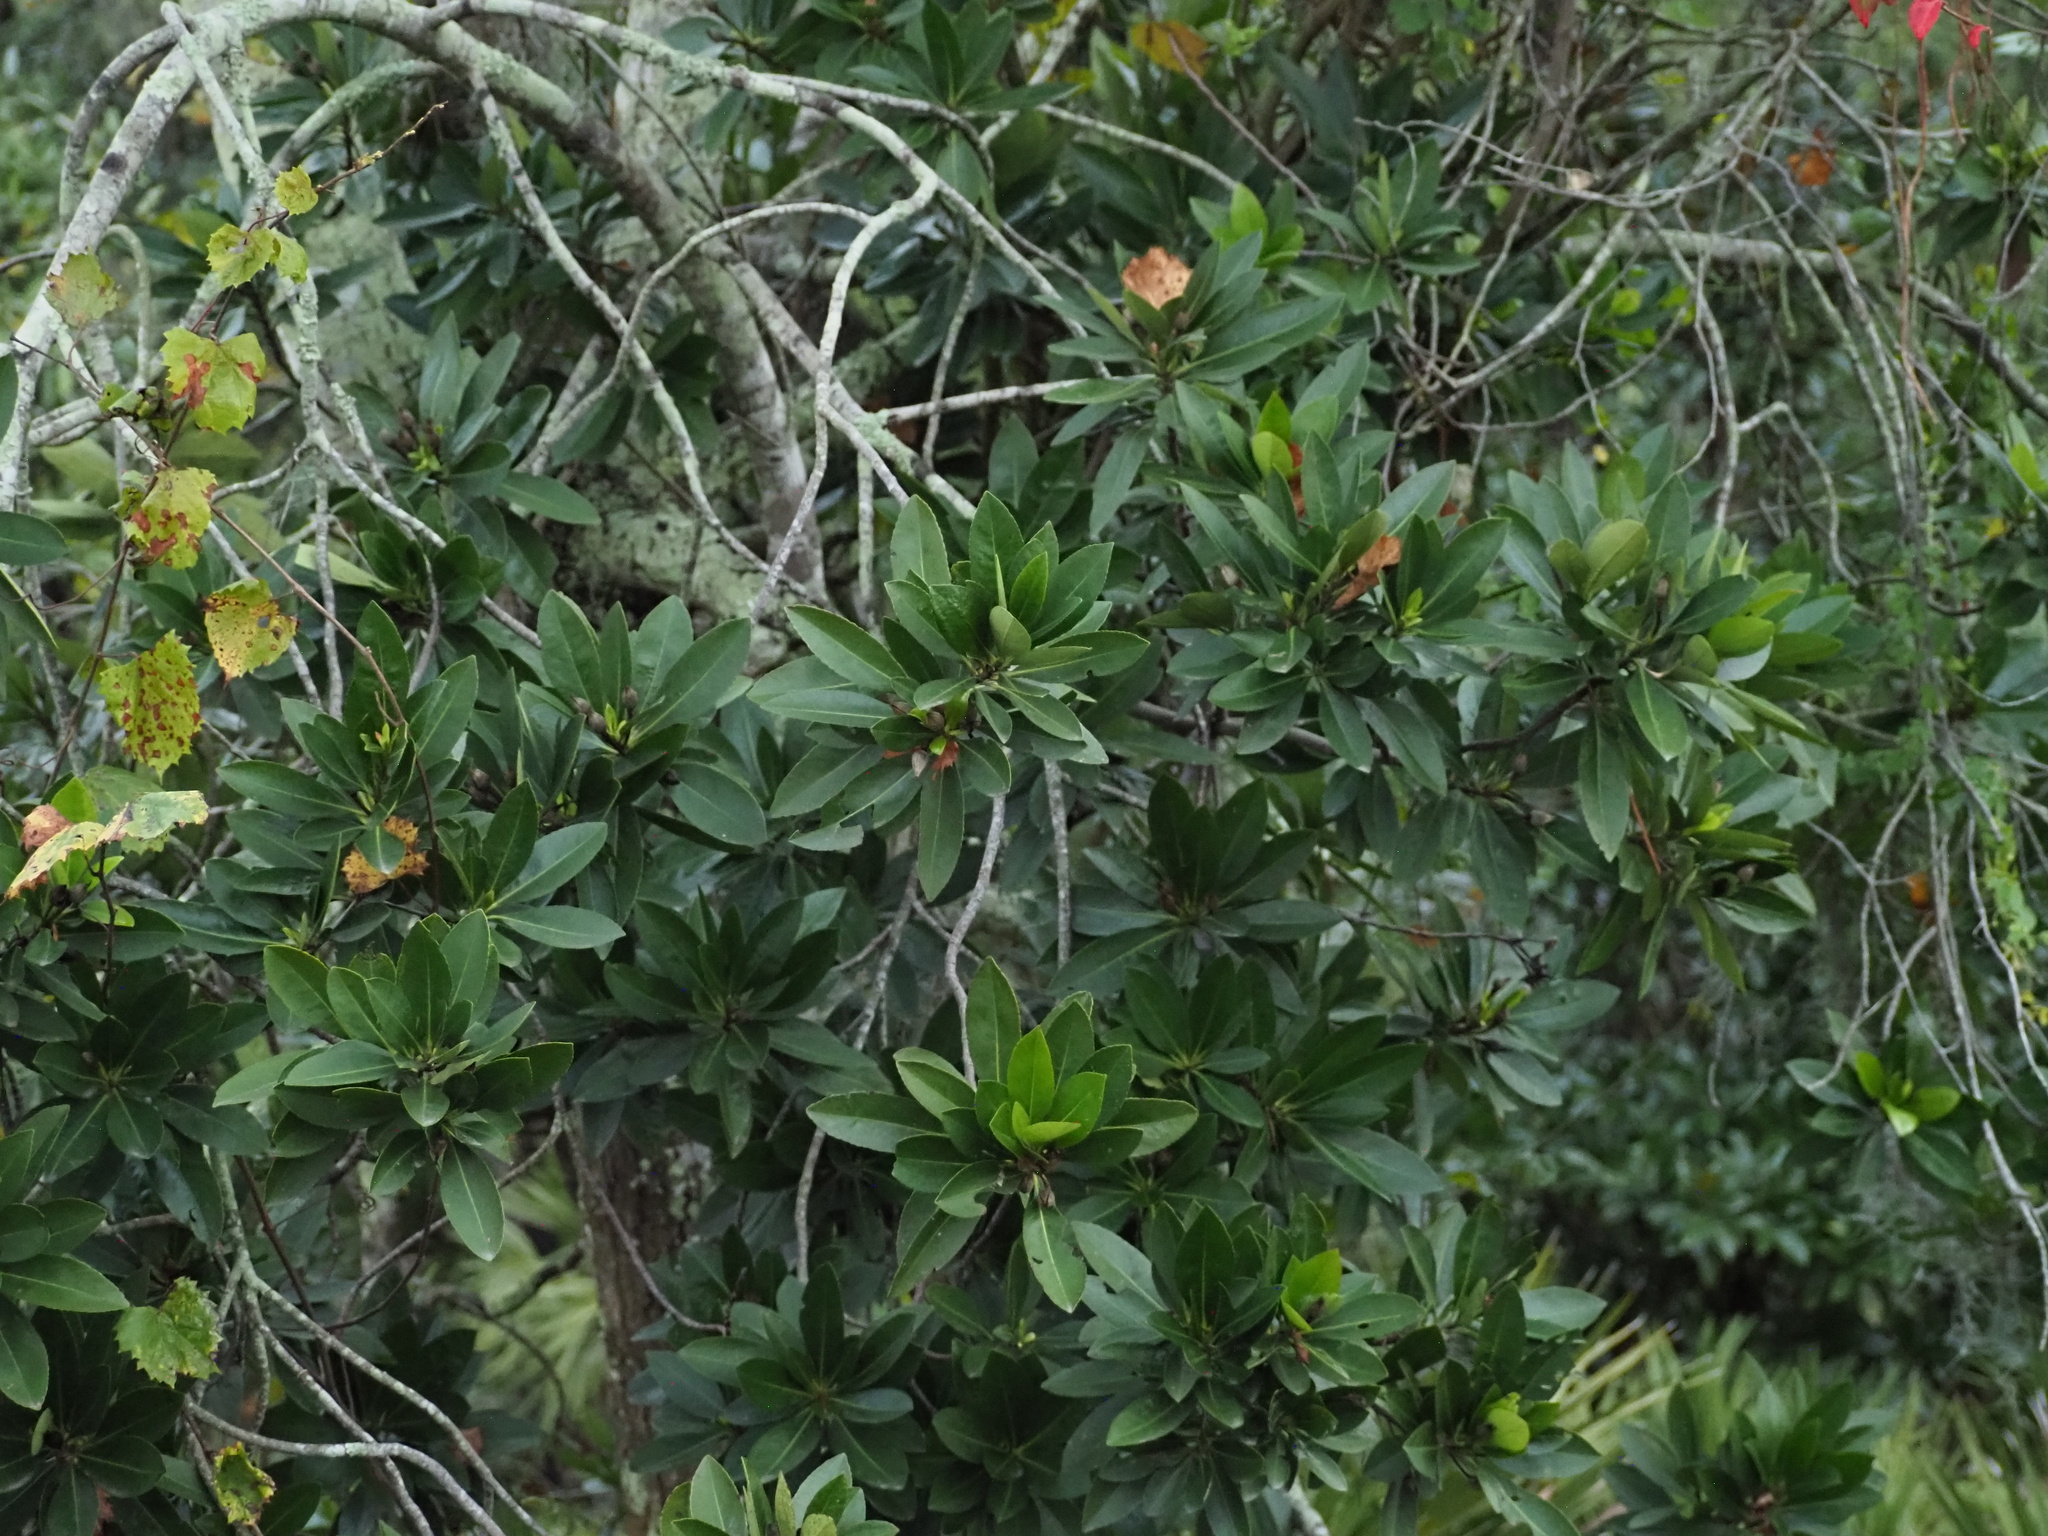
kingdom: Plantae
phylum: Tracheophyta
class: Magnoliopsida
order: Ericales
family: Theaceae
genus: Gordonia
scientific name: Gordonia lasianthus
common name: Loblolly bay
